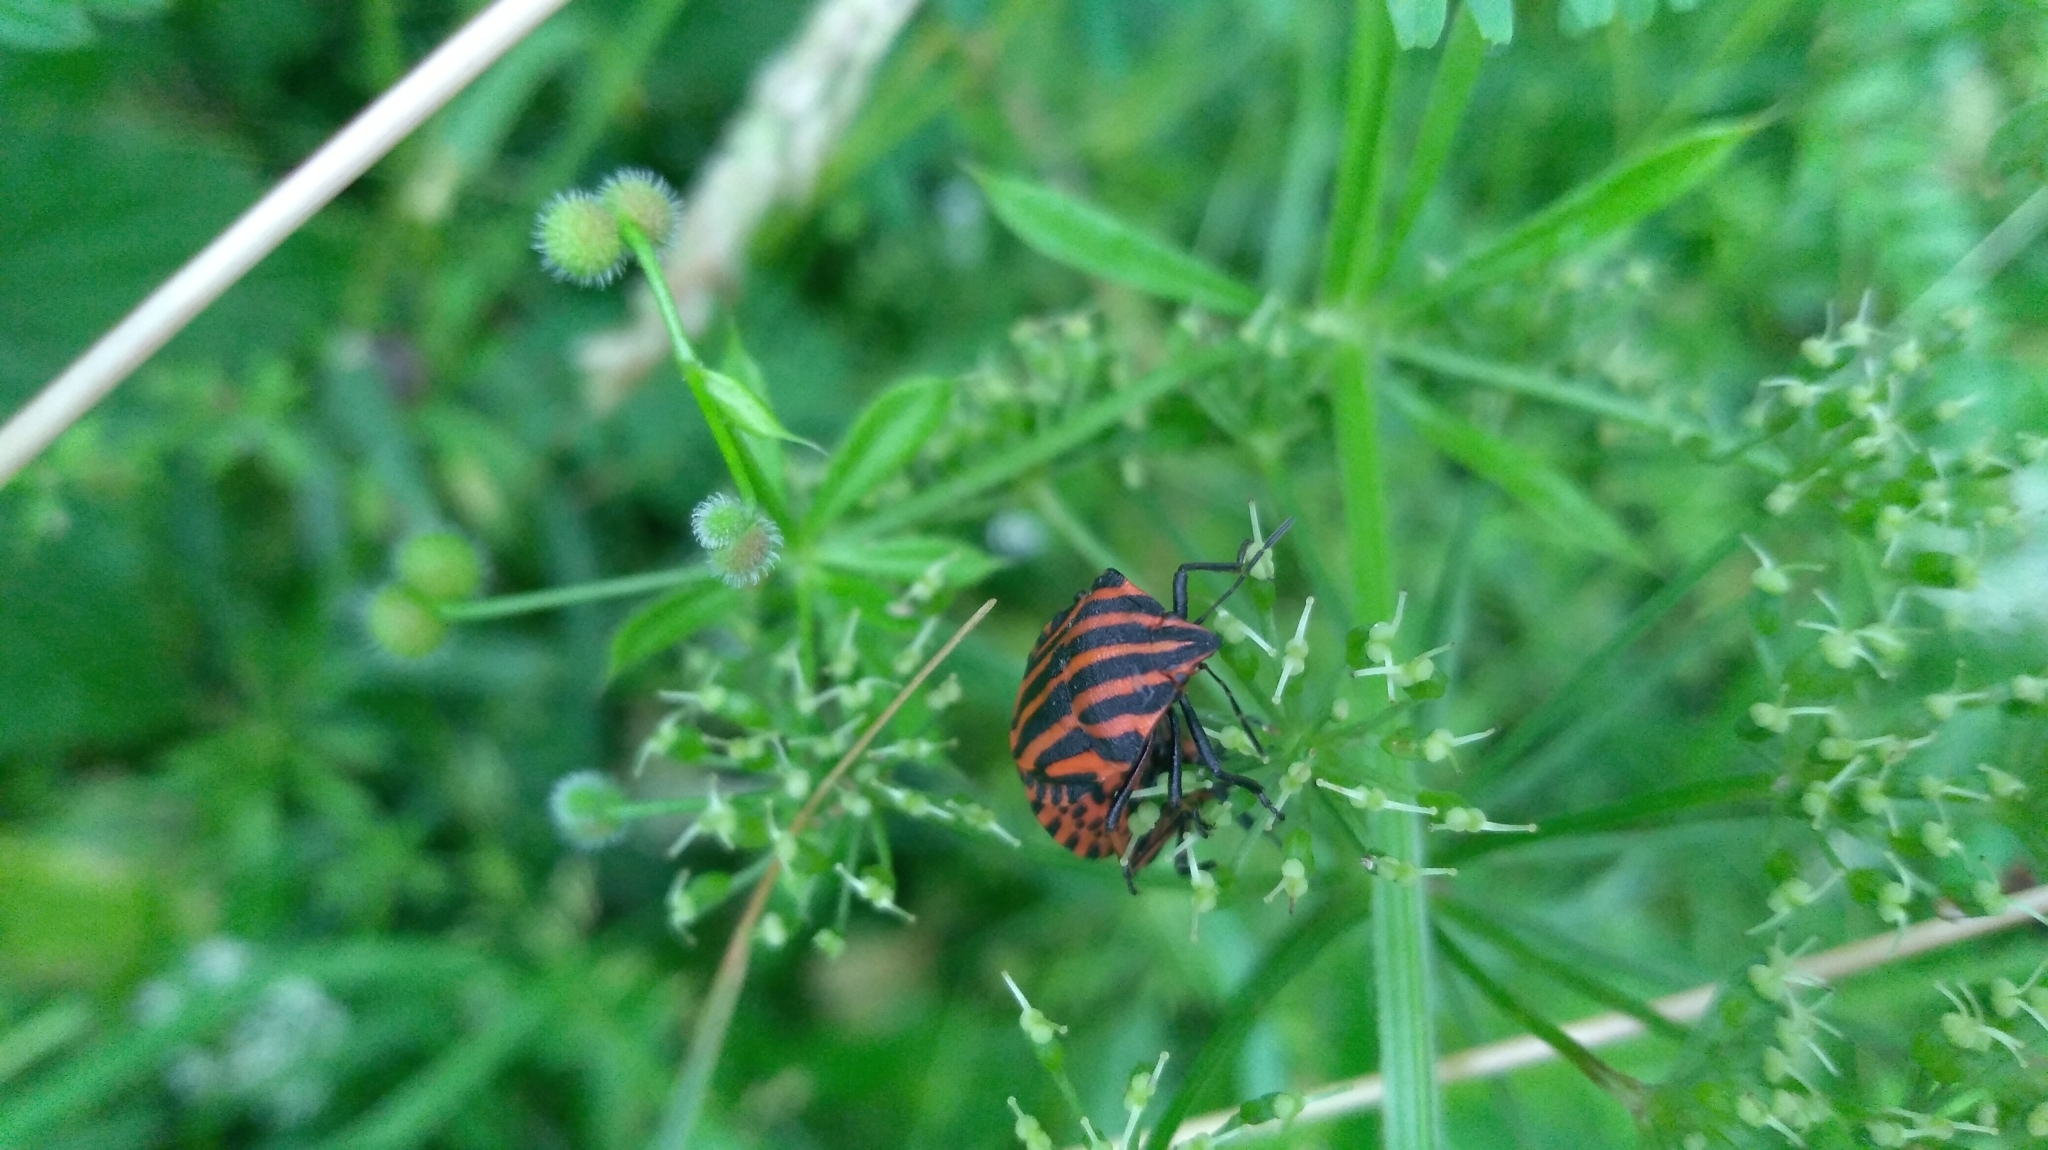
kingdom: Animalia
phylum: Arthropoda
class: Insecta
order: Hemiptera
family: Pentatomidae
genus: Graphosoma
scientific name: Graphosoma italicum
